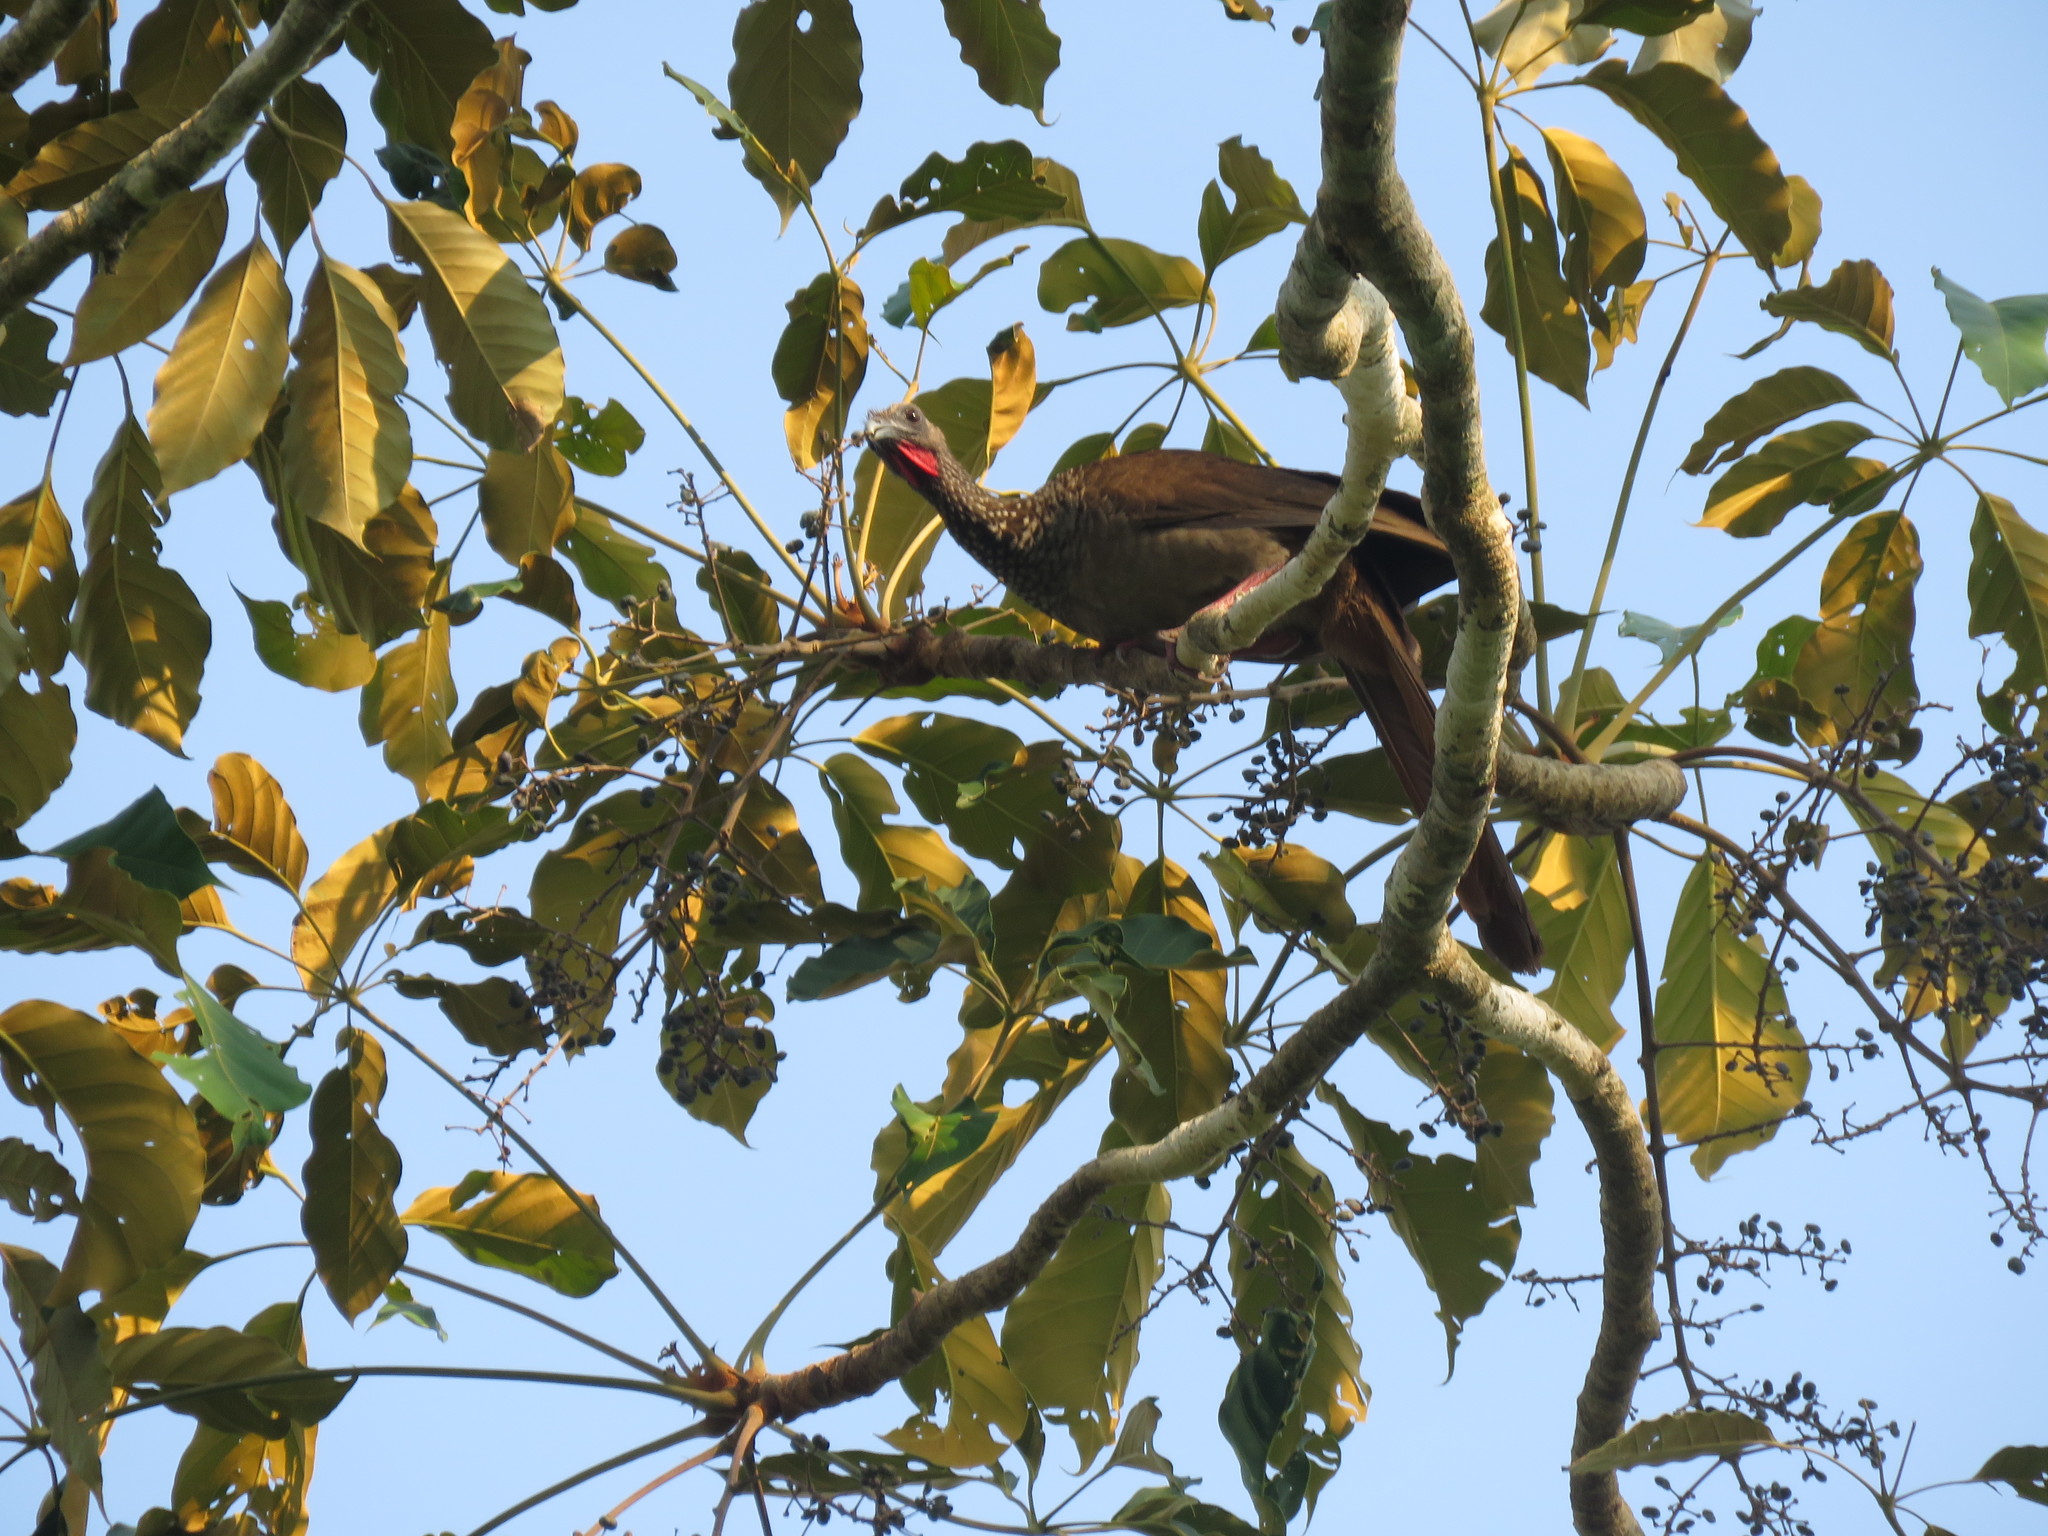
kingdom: Animalia
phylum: Chordata
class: Aves
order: Galliformes
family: Cracidae
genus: Ortalis
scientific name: Ortalis guttata
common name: Speckled chachalaca
